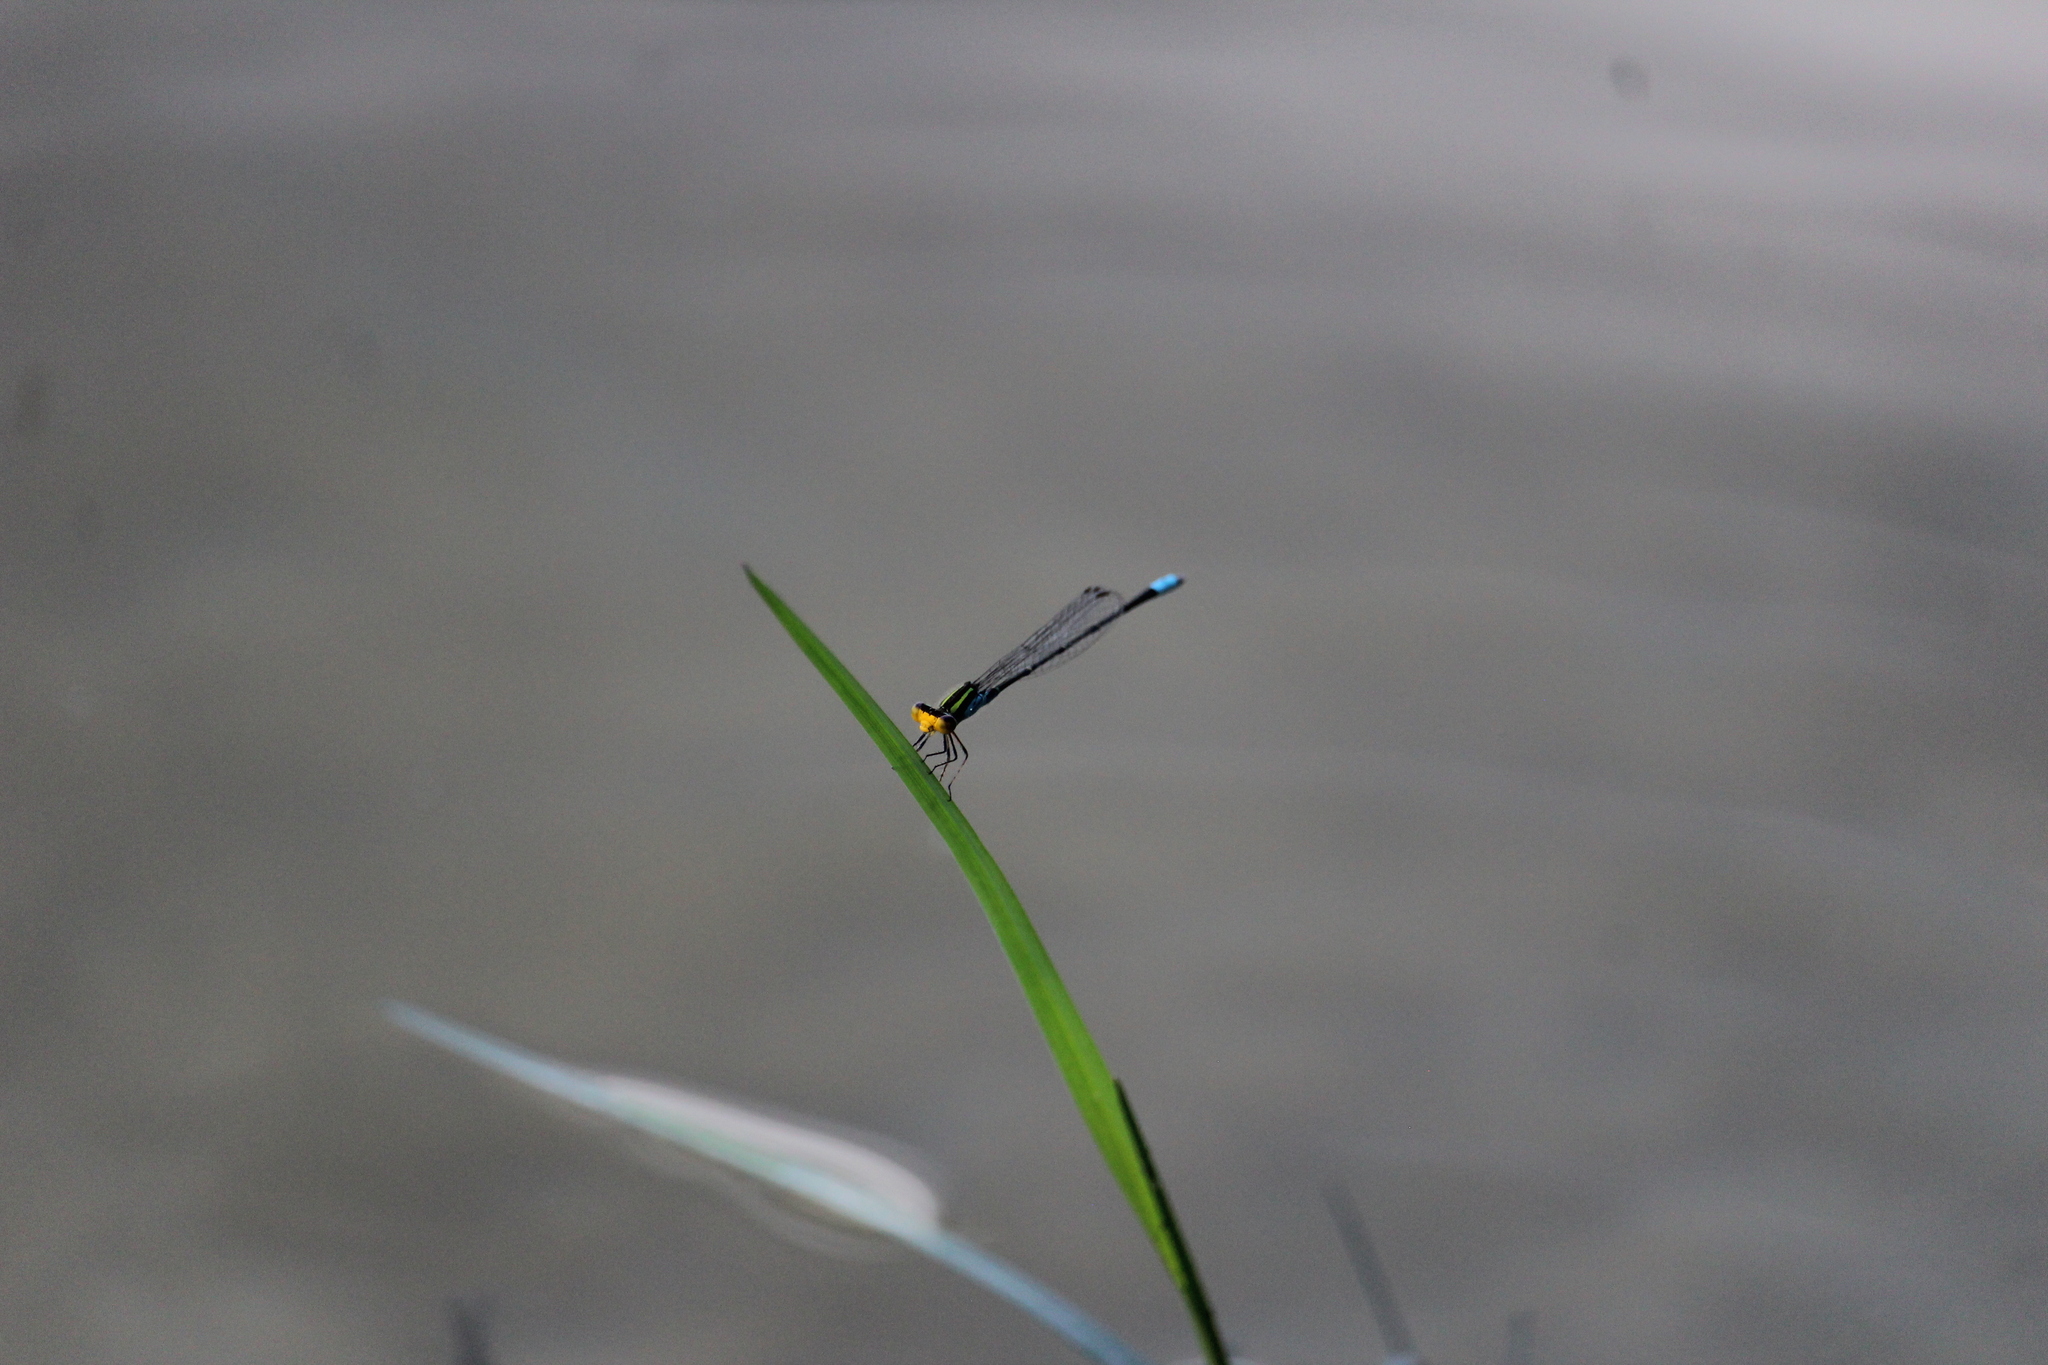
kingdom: Animalia
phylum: Arthropoda
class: Insecta
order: Odonata
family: Coenagrionidae
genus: Neoerythromma
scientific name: Neoerythromma cultellatum
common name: Caribbean yellowface
